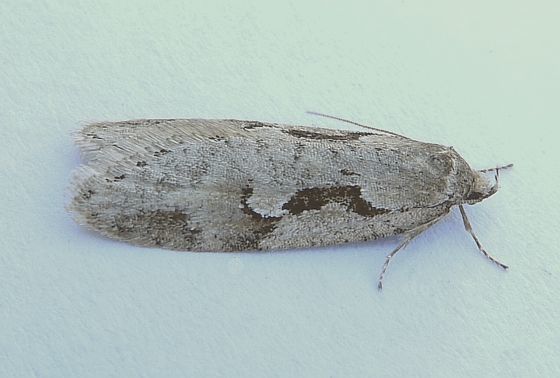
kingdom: Animalia
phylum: Arthropoda
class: Insecta
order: Lepidoptera
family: Depressariidae
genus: Semioscopis
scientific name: Semioscopis merriccella
